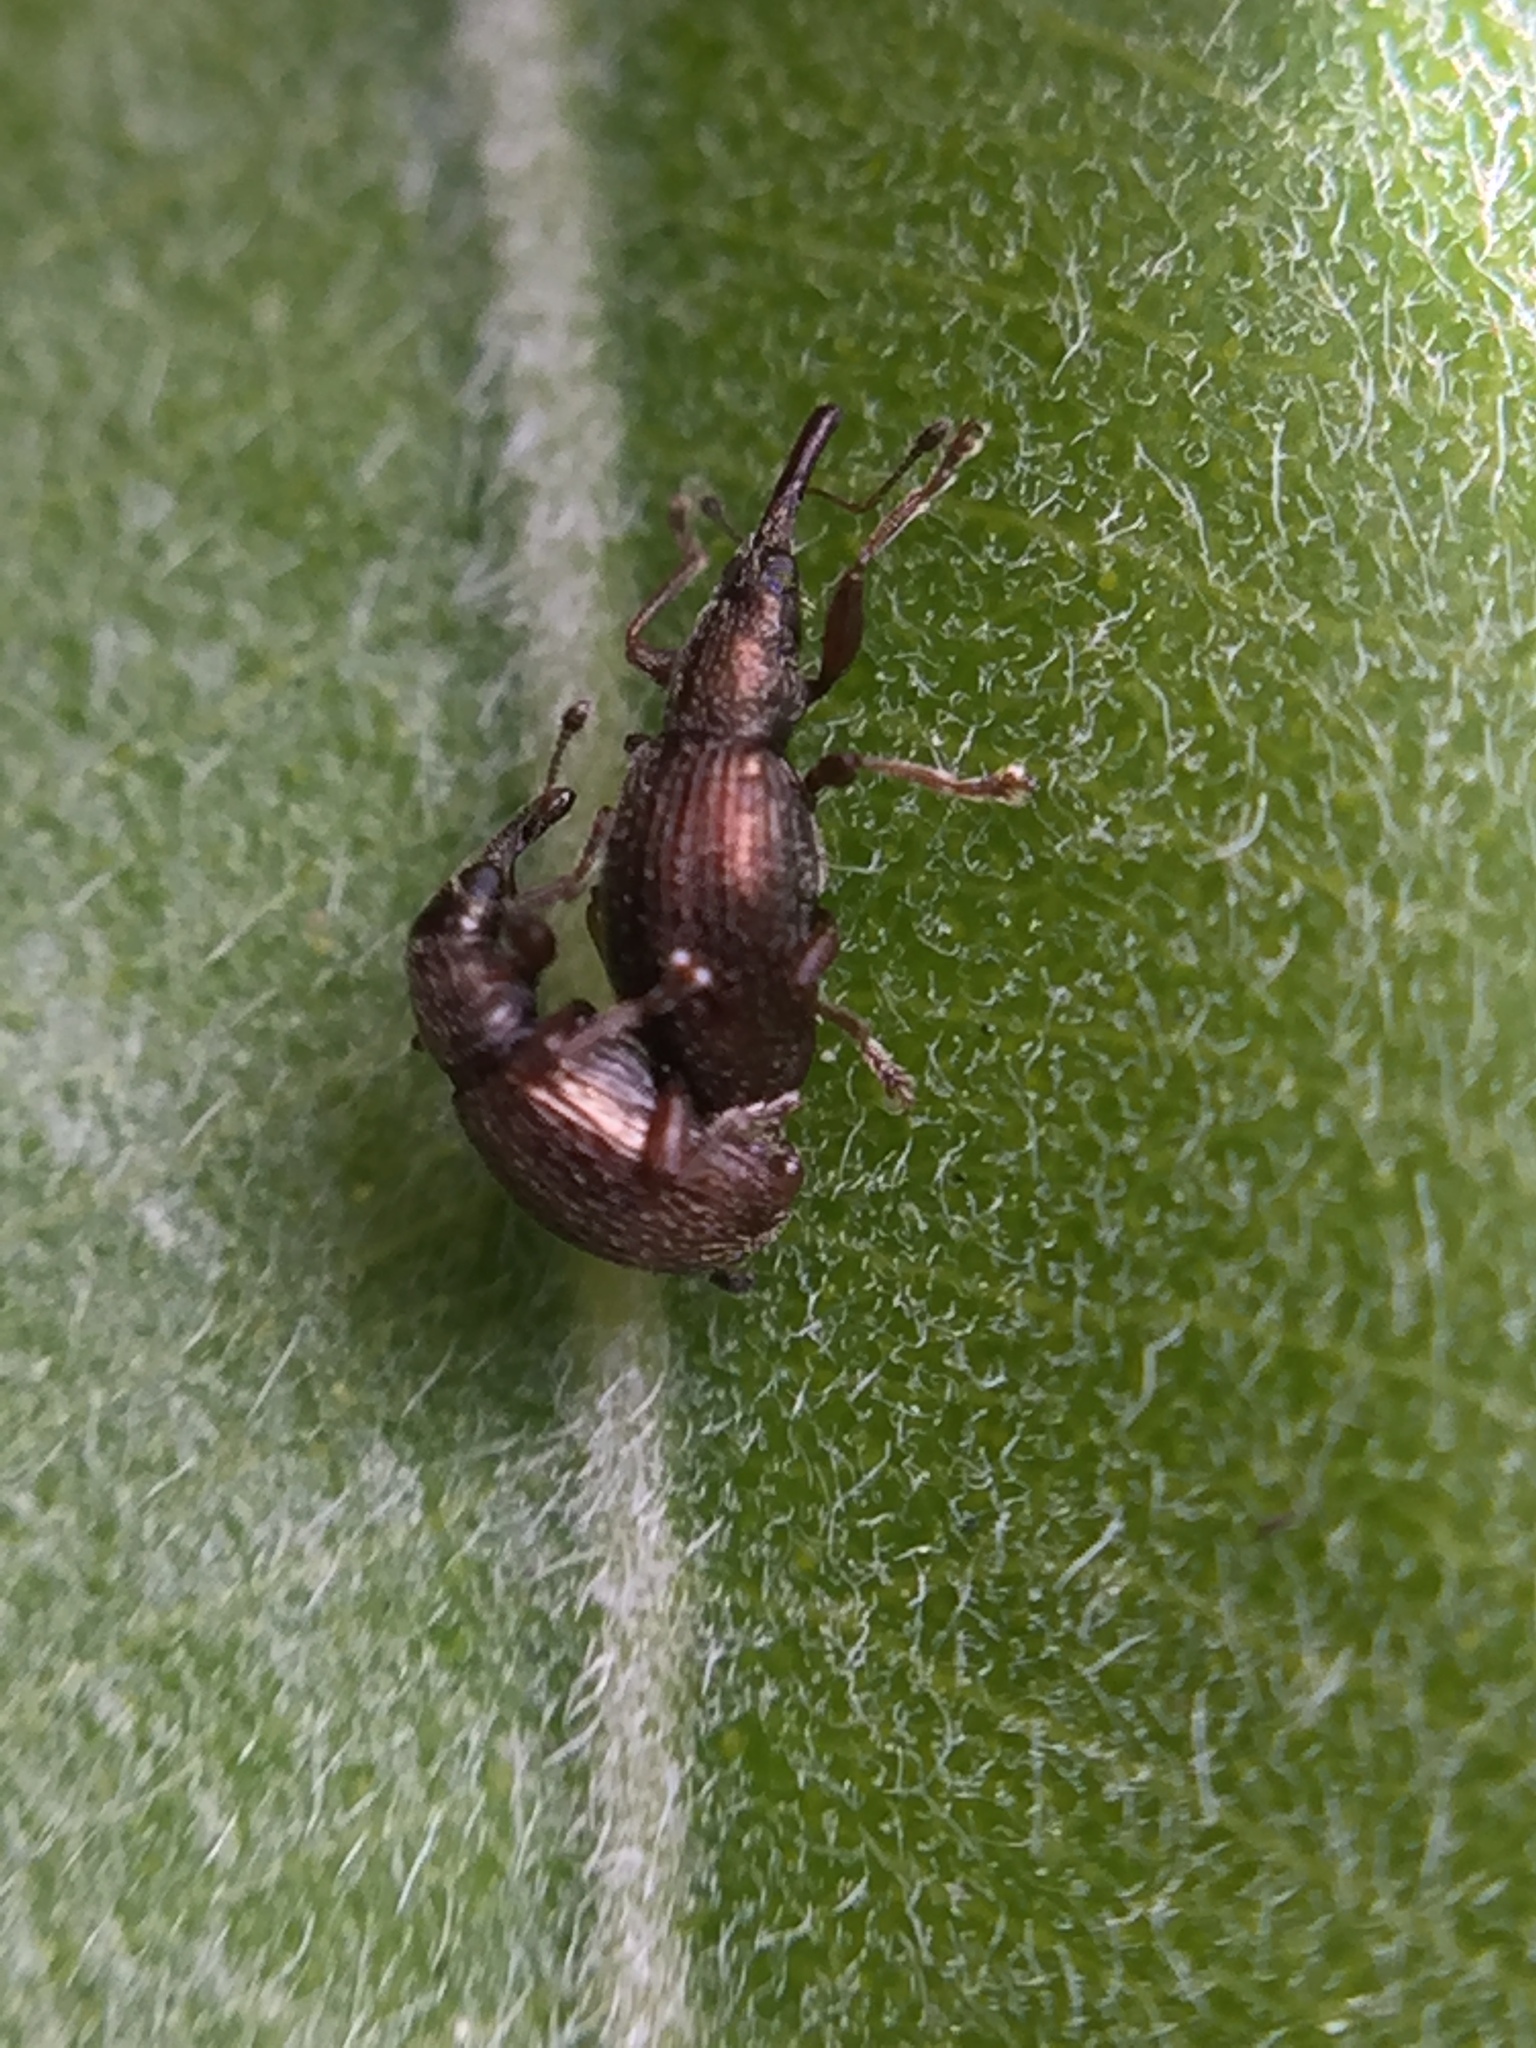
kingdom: Animalia
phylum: Arthropoda
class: Insecta
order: Coleoptera
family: Brentidae
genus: Neocyba
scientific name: Neocyba metrosideros
